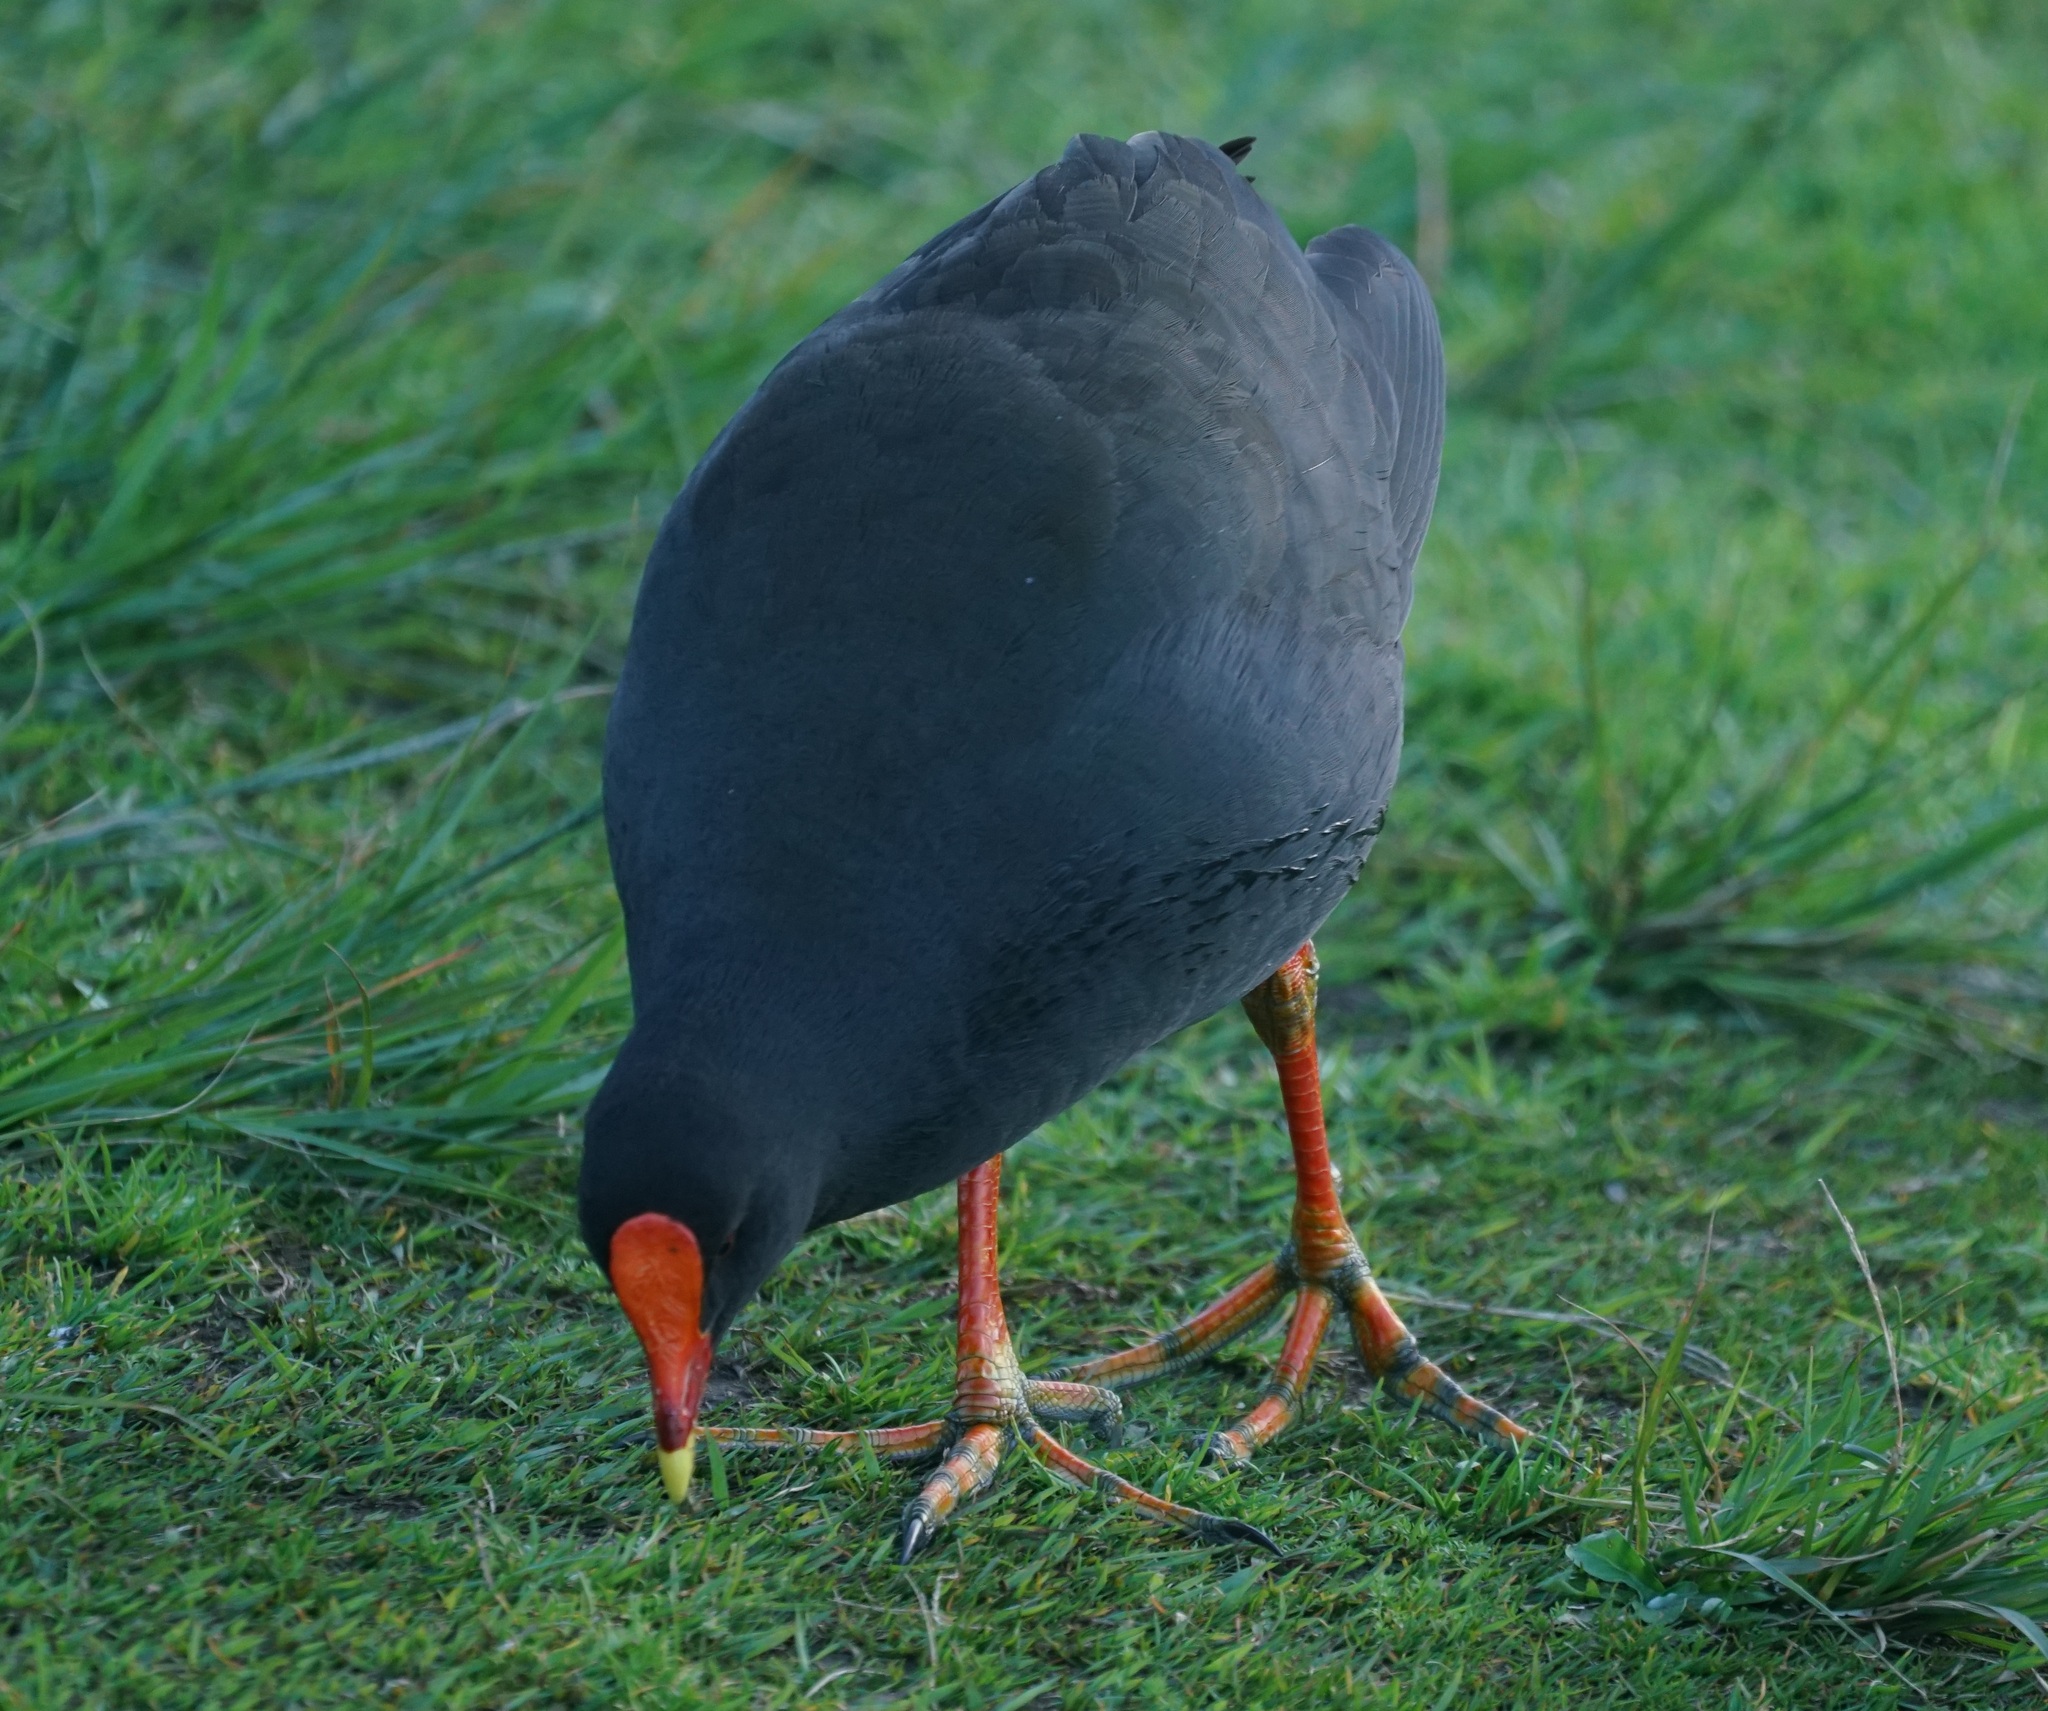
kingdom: Animalia
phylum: Chordata
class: Aves
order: Gruiformes
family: Rallidae
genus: Gallinula
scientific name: Gallinula tenebrosa
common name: Dusky moorhen
